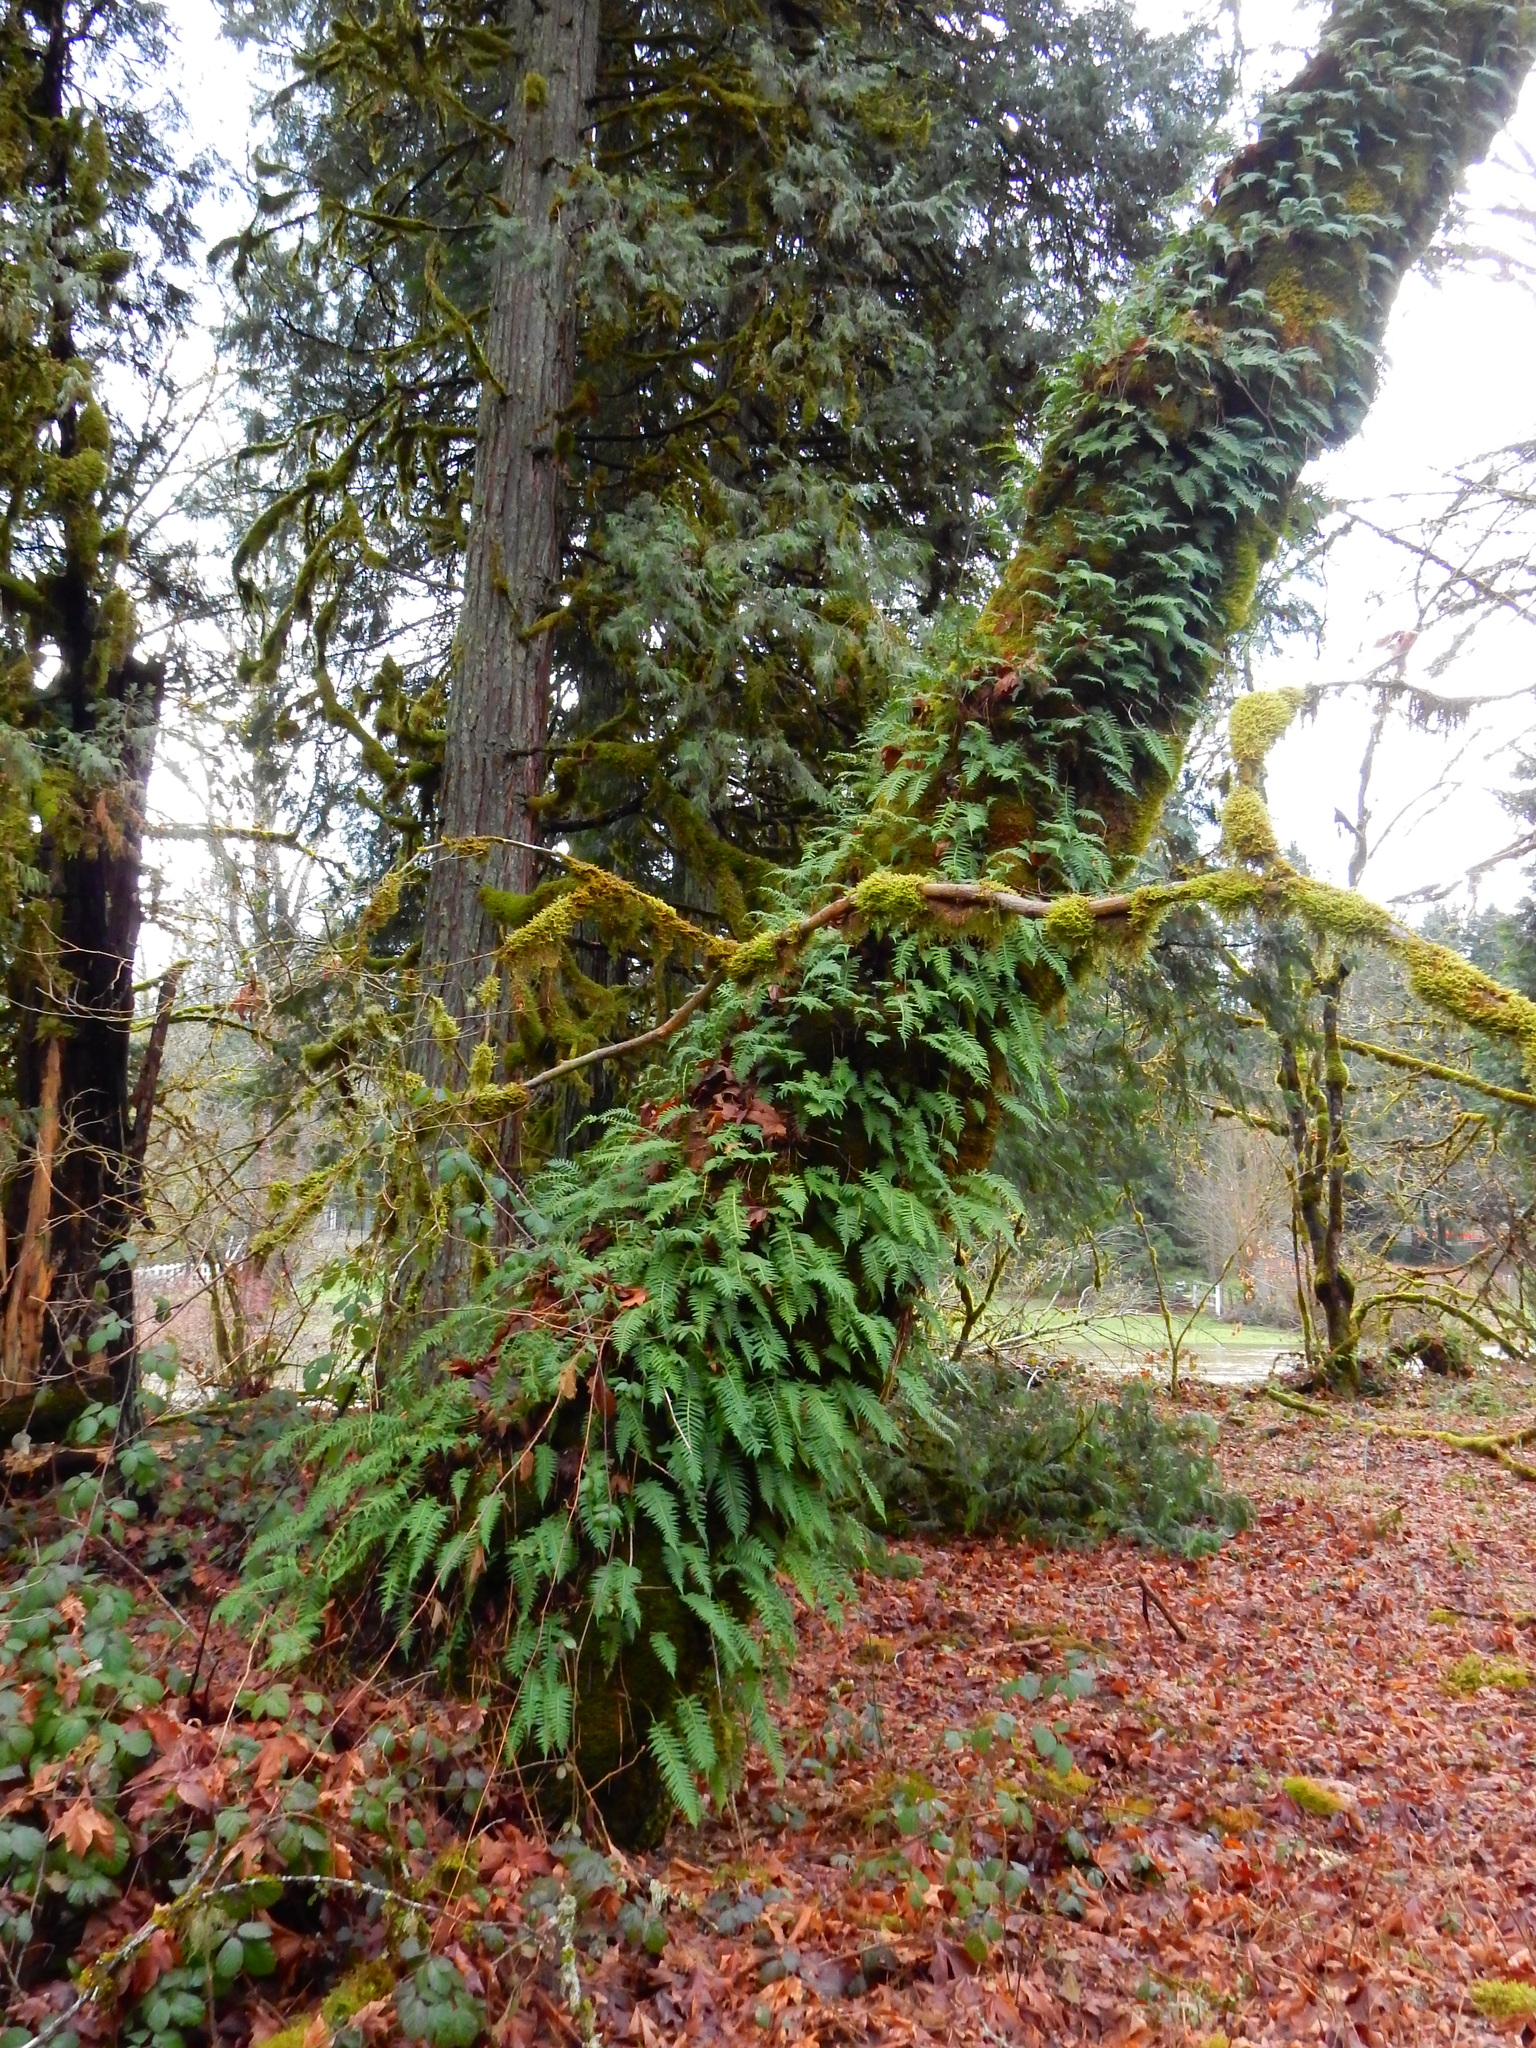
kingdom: Plantae
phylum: Tracheophyta
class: Polypodiopsida
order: Polypodiales
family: Polypodiaceae
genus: Polypodium
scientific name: Polypodium glycyrrhiza
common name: Licorice fern
